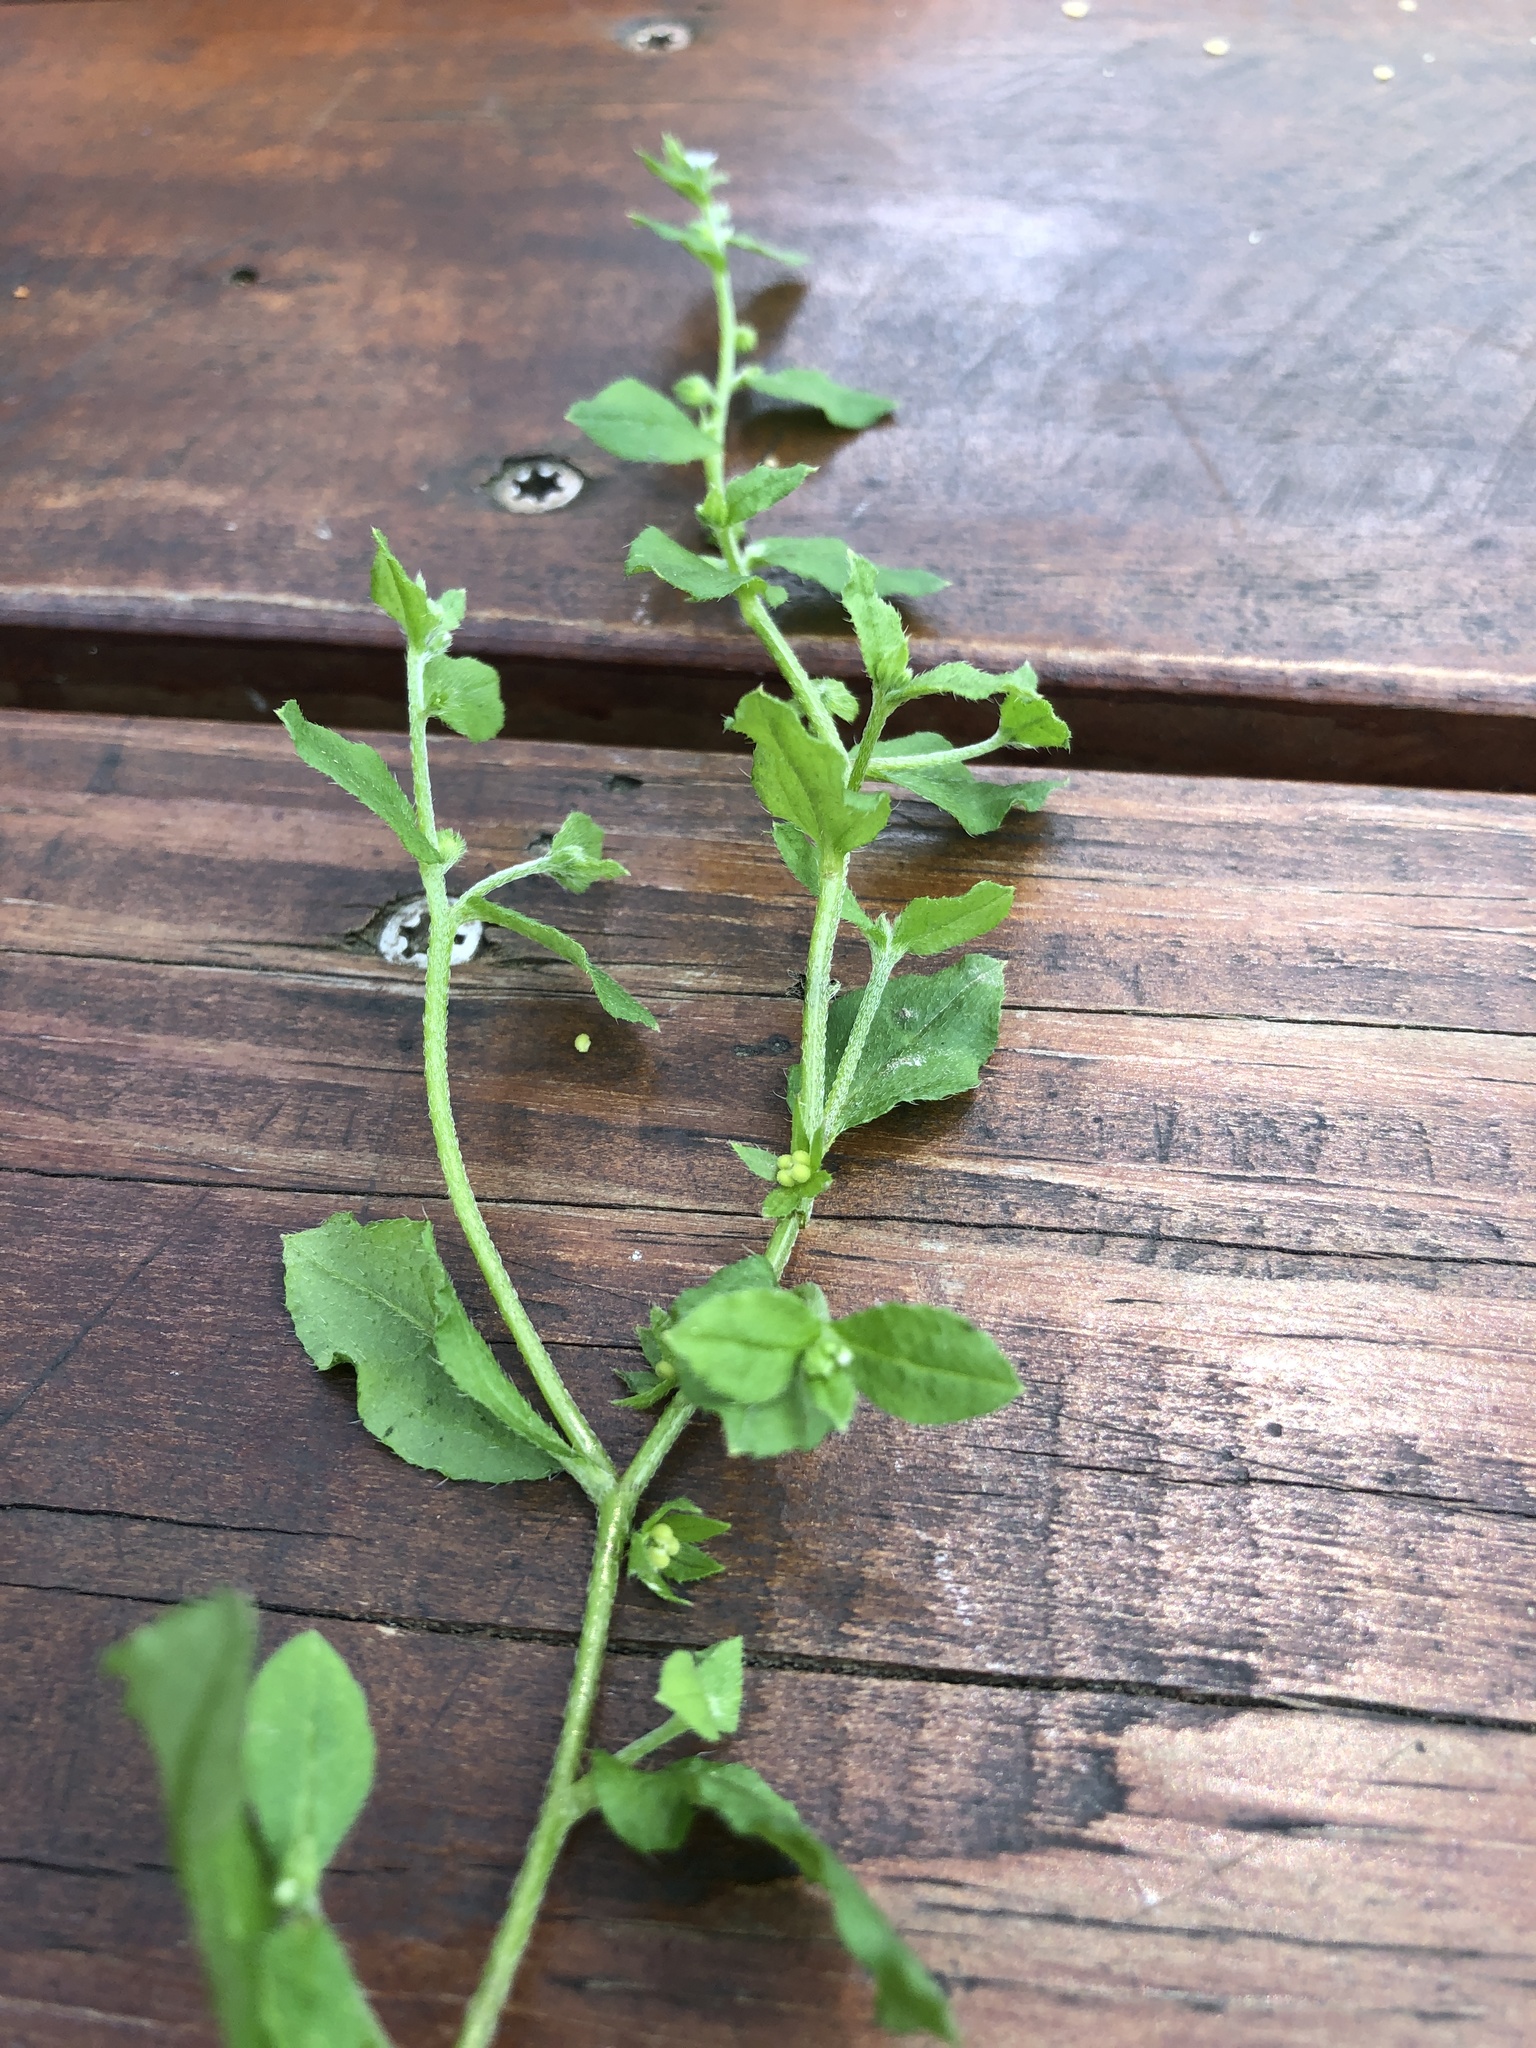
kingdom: Plantae
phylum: Tracheophyta
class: Magnoliopsida
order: Boraginales
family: Boraginaceae
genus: Bothriospermum
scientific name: Bothriospermum zeylanicum
